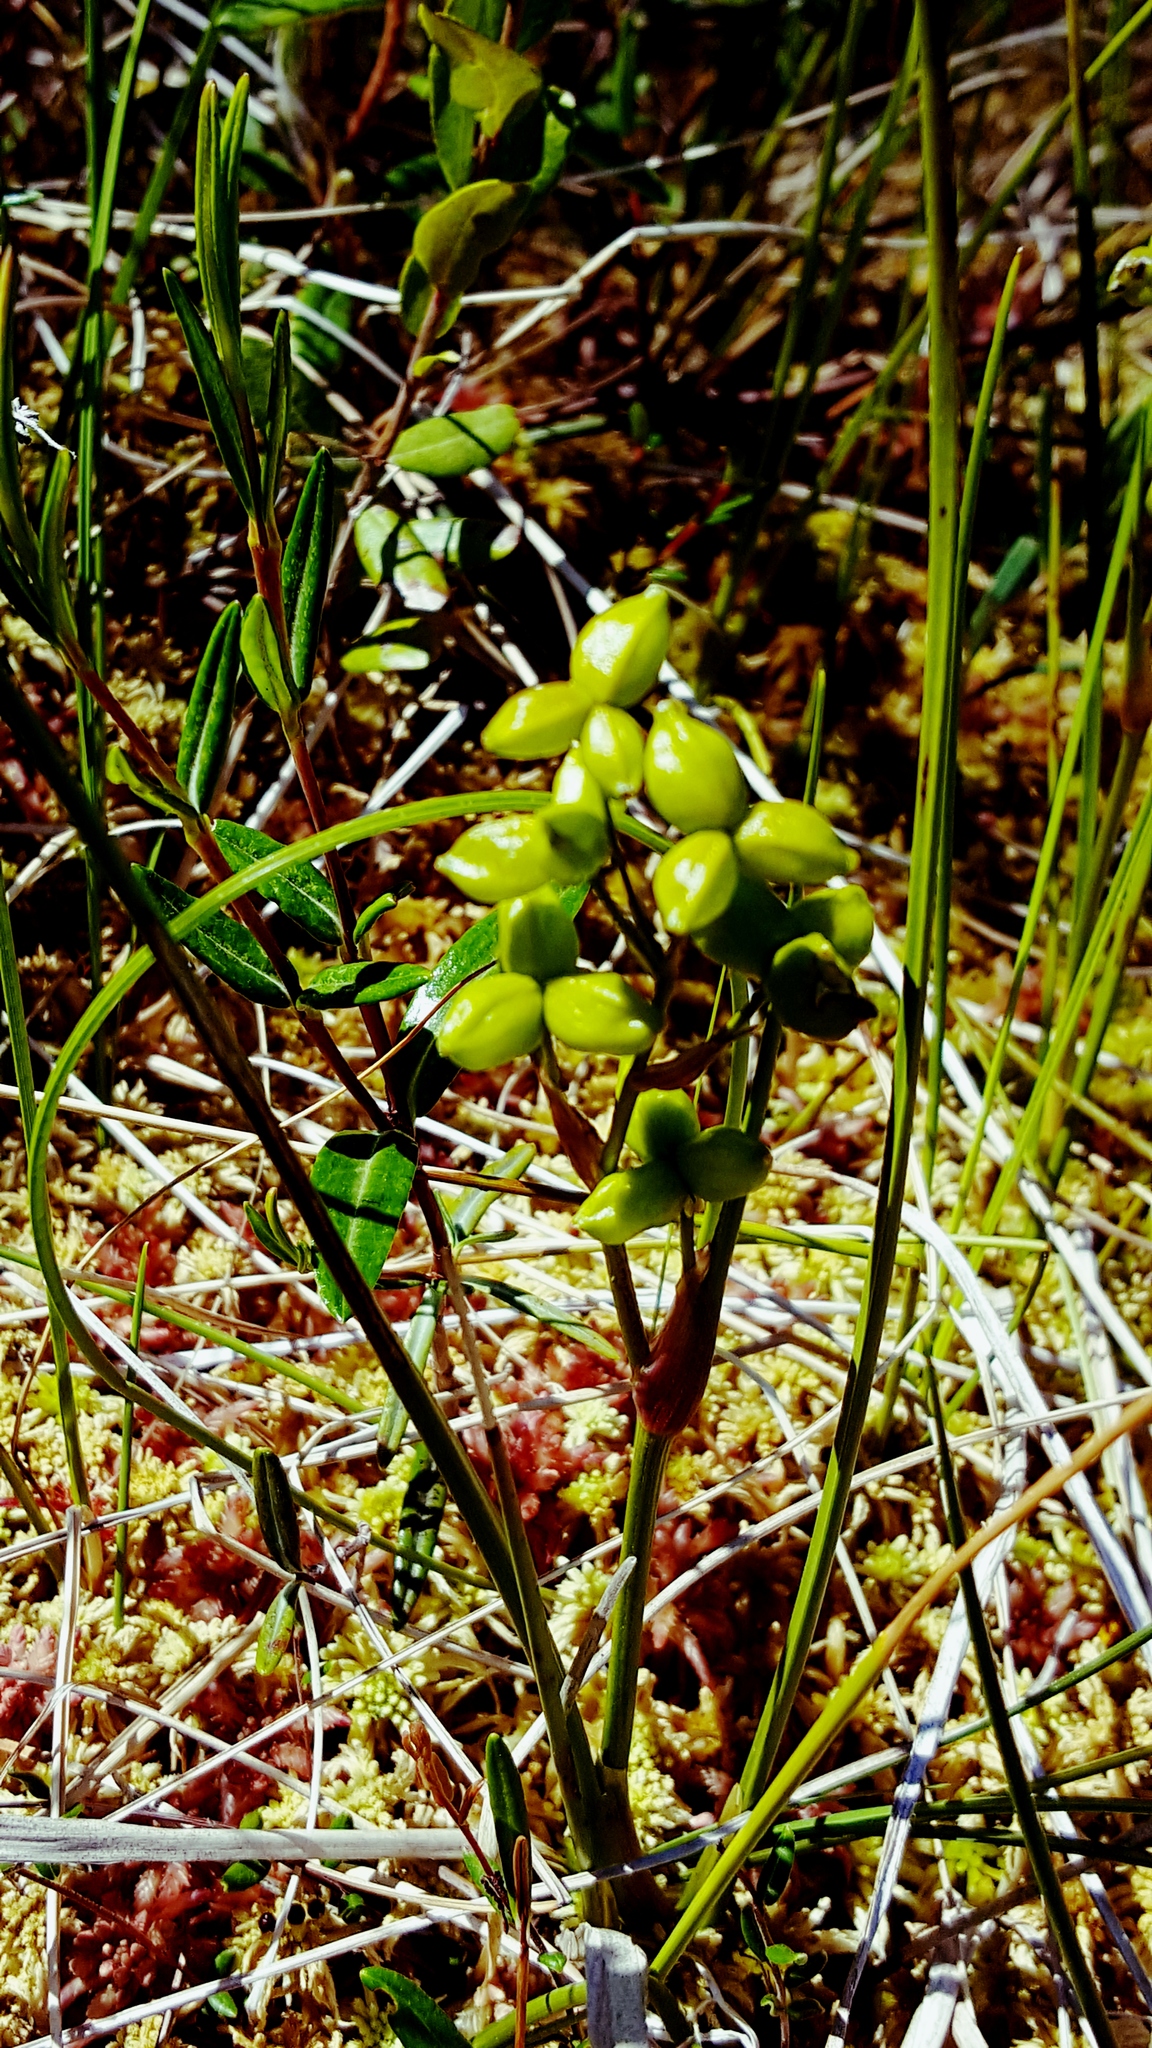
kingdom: Plantae
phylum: Tracheophyta
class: Liliopsida
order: Alismatales
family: Scheuchzeriaceae
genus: Scheuchzeria
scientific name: Scheuchzeria palustris
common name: Rannoch-rush
